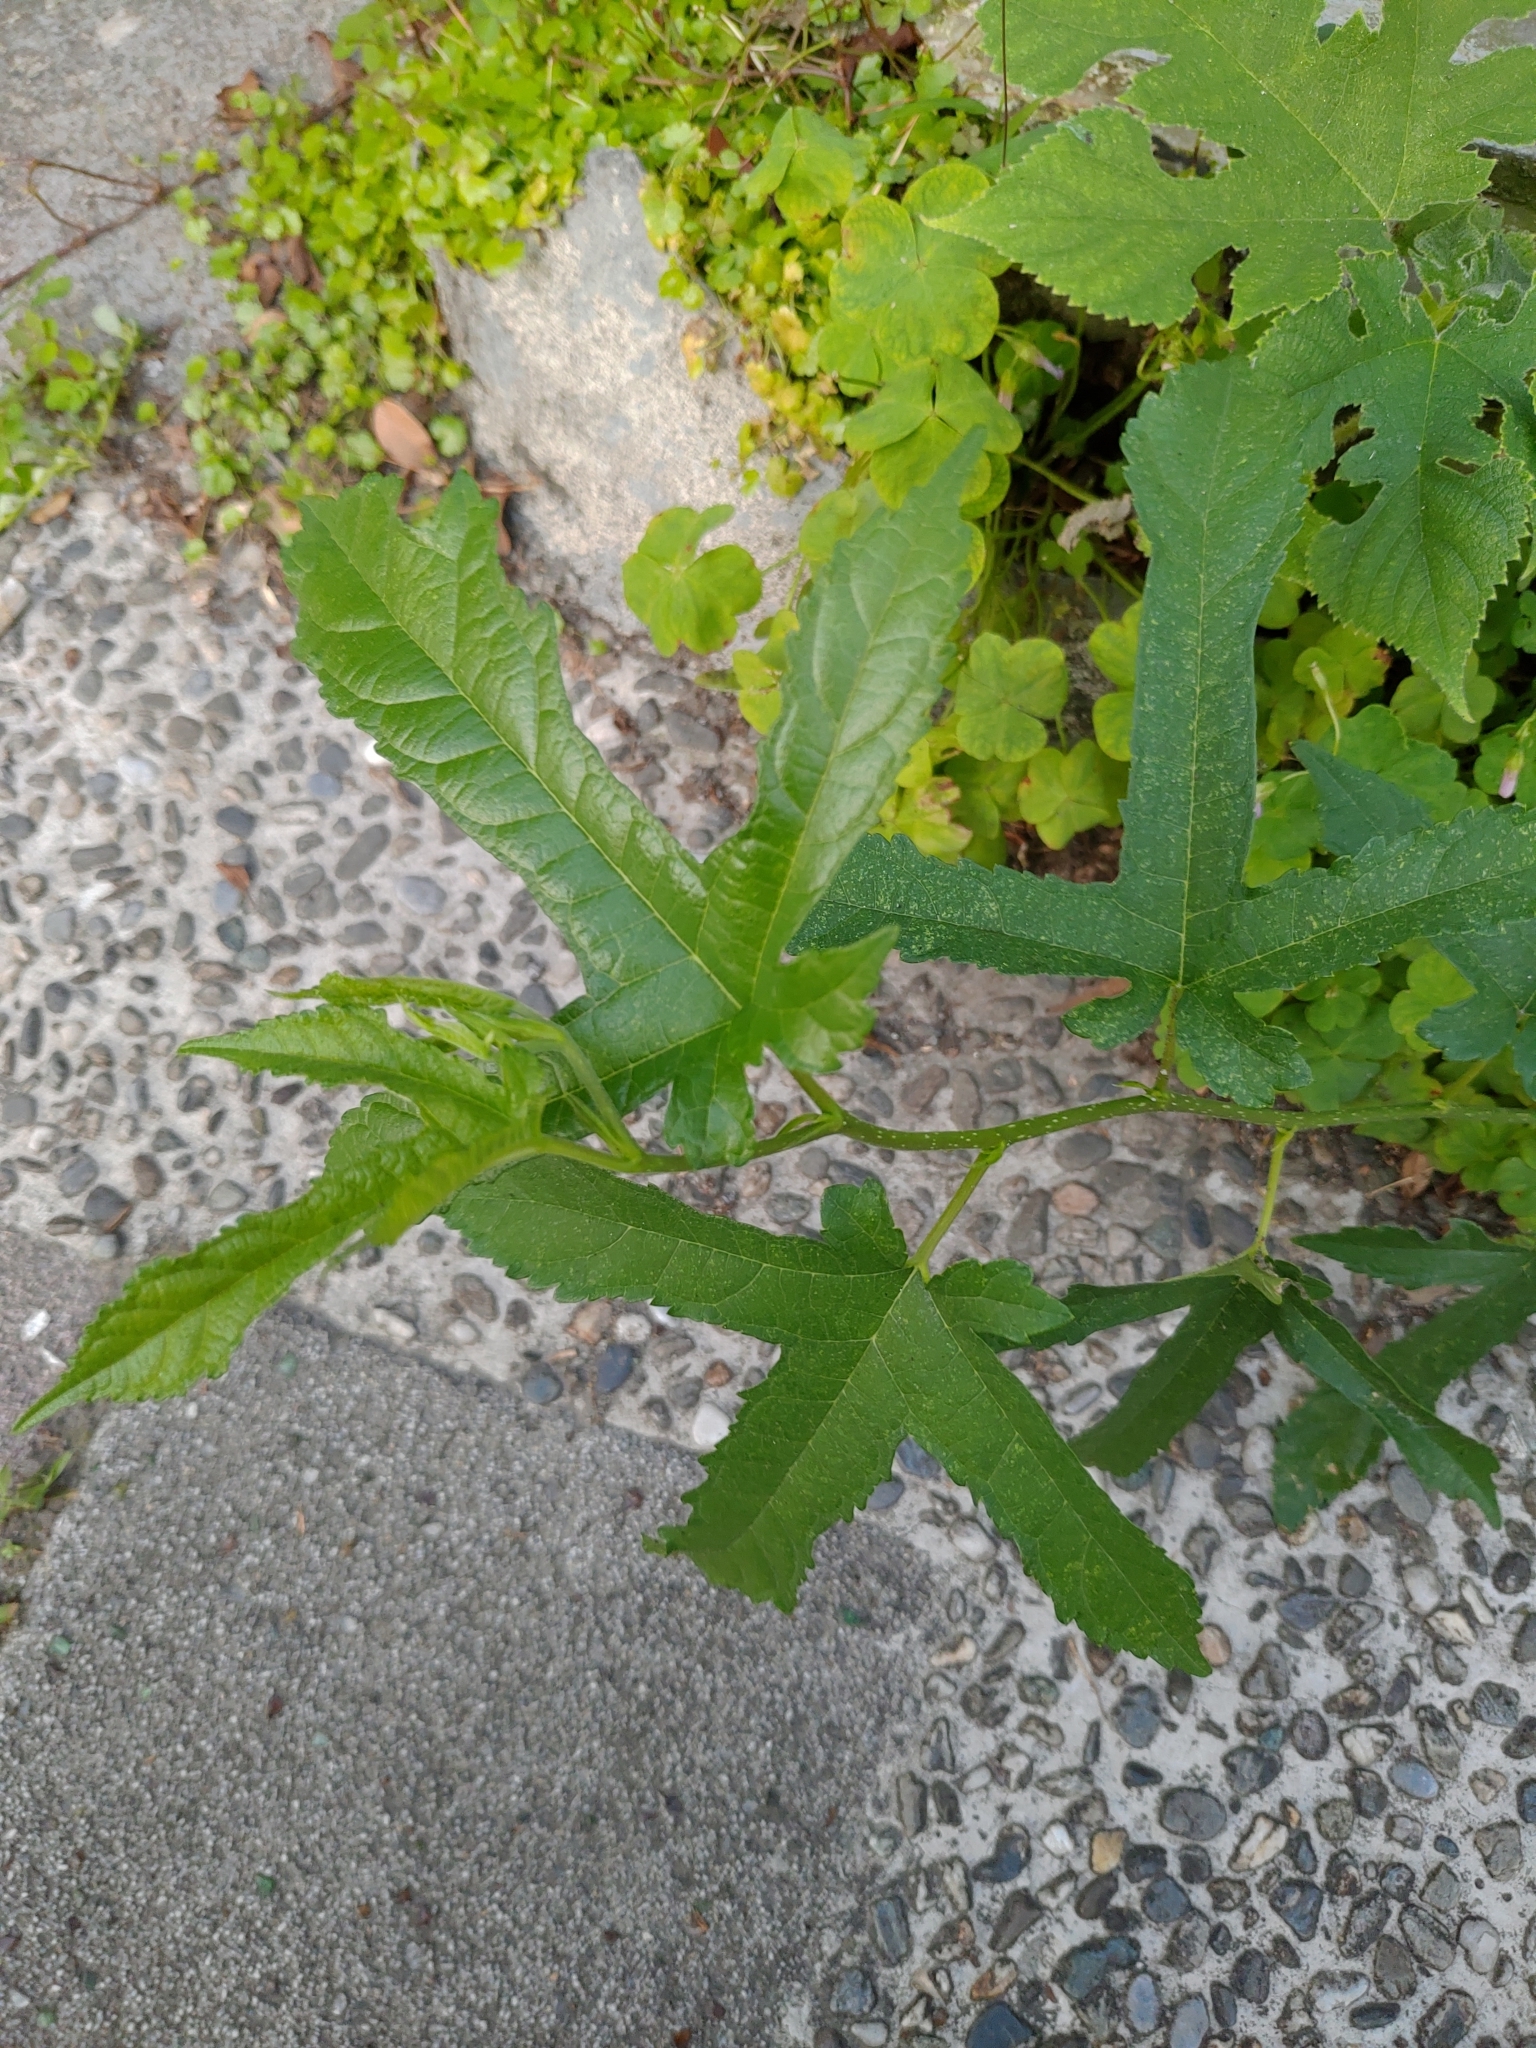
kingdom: Plantae
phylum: Tracheophyta
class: Magnoliopsida
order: Rosales
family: Moraceae
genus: Morus
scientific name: Morus indica
